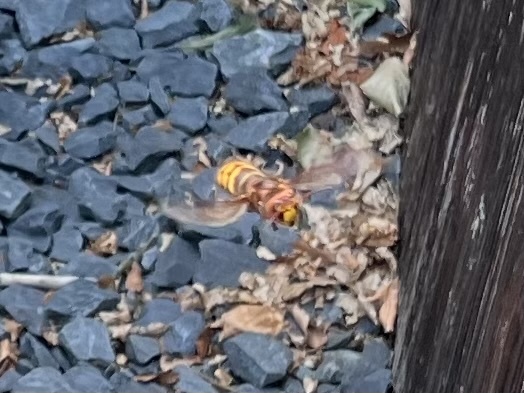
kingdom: Animalia
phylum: Arthropoda
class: Insecta
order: Hymenoptera
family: Vespidae
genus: Vespa
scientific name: Vespa crabro
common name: Hornet
